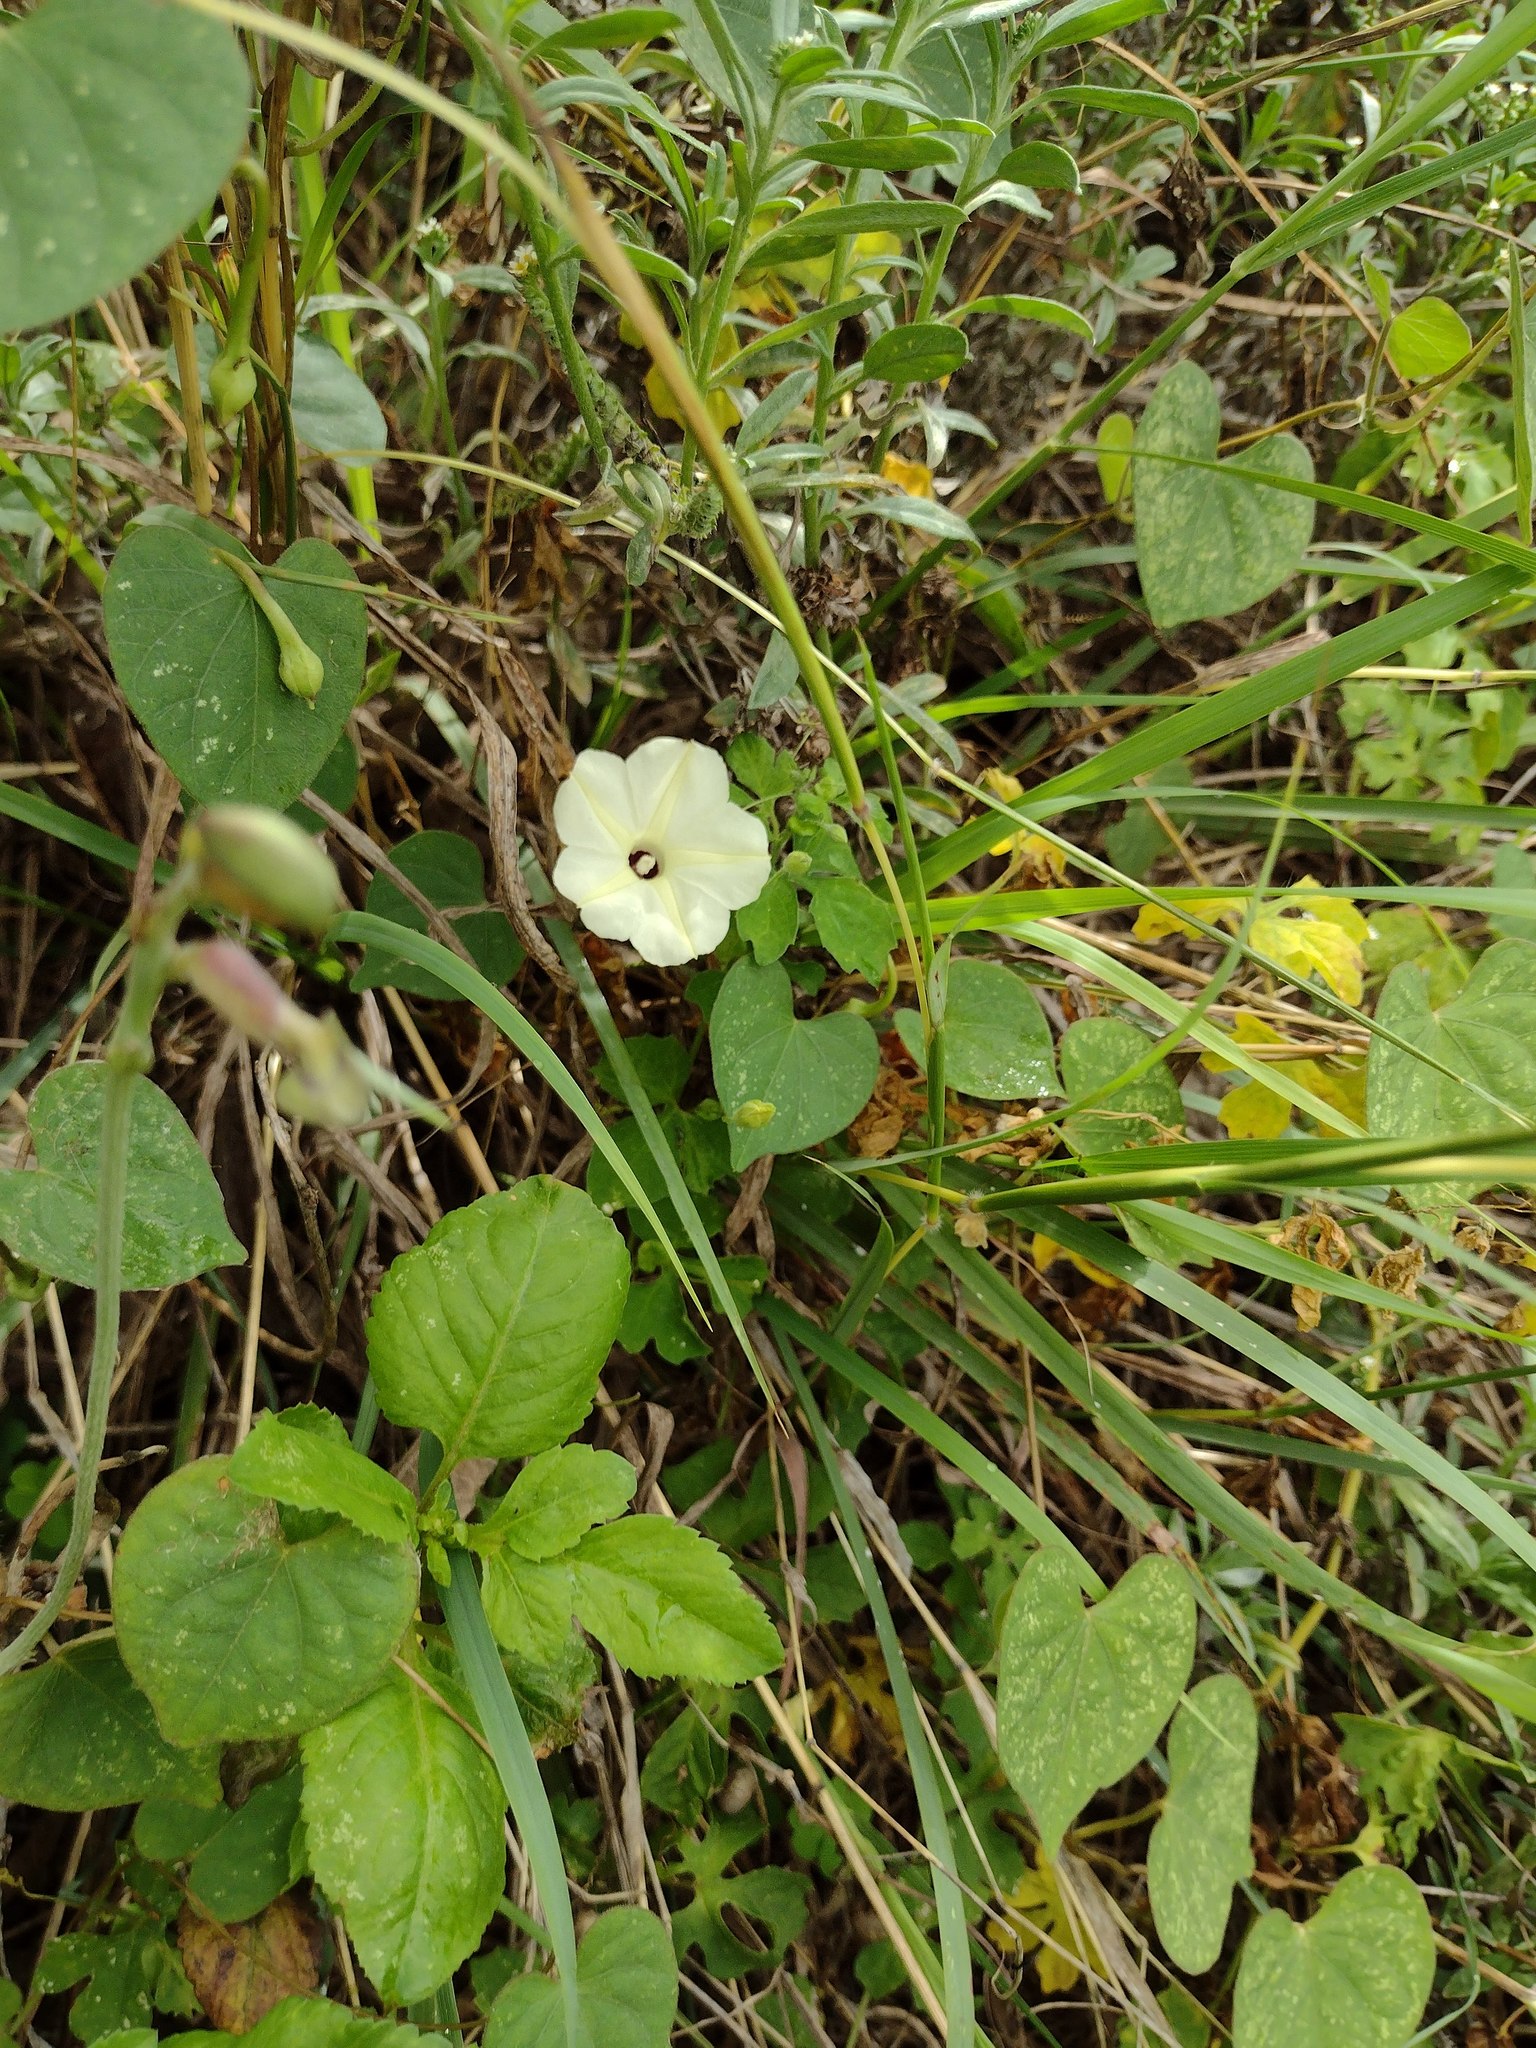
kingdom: Plantae
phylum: Tracheophyta
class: Magnoliopsida
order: Solanales
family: Convolvulaceae
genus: Ipomoea
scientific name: Ipomoea obscura
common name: Obscure morning-glory
